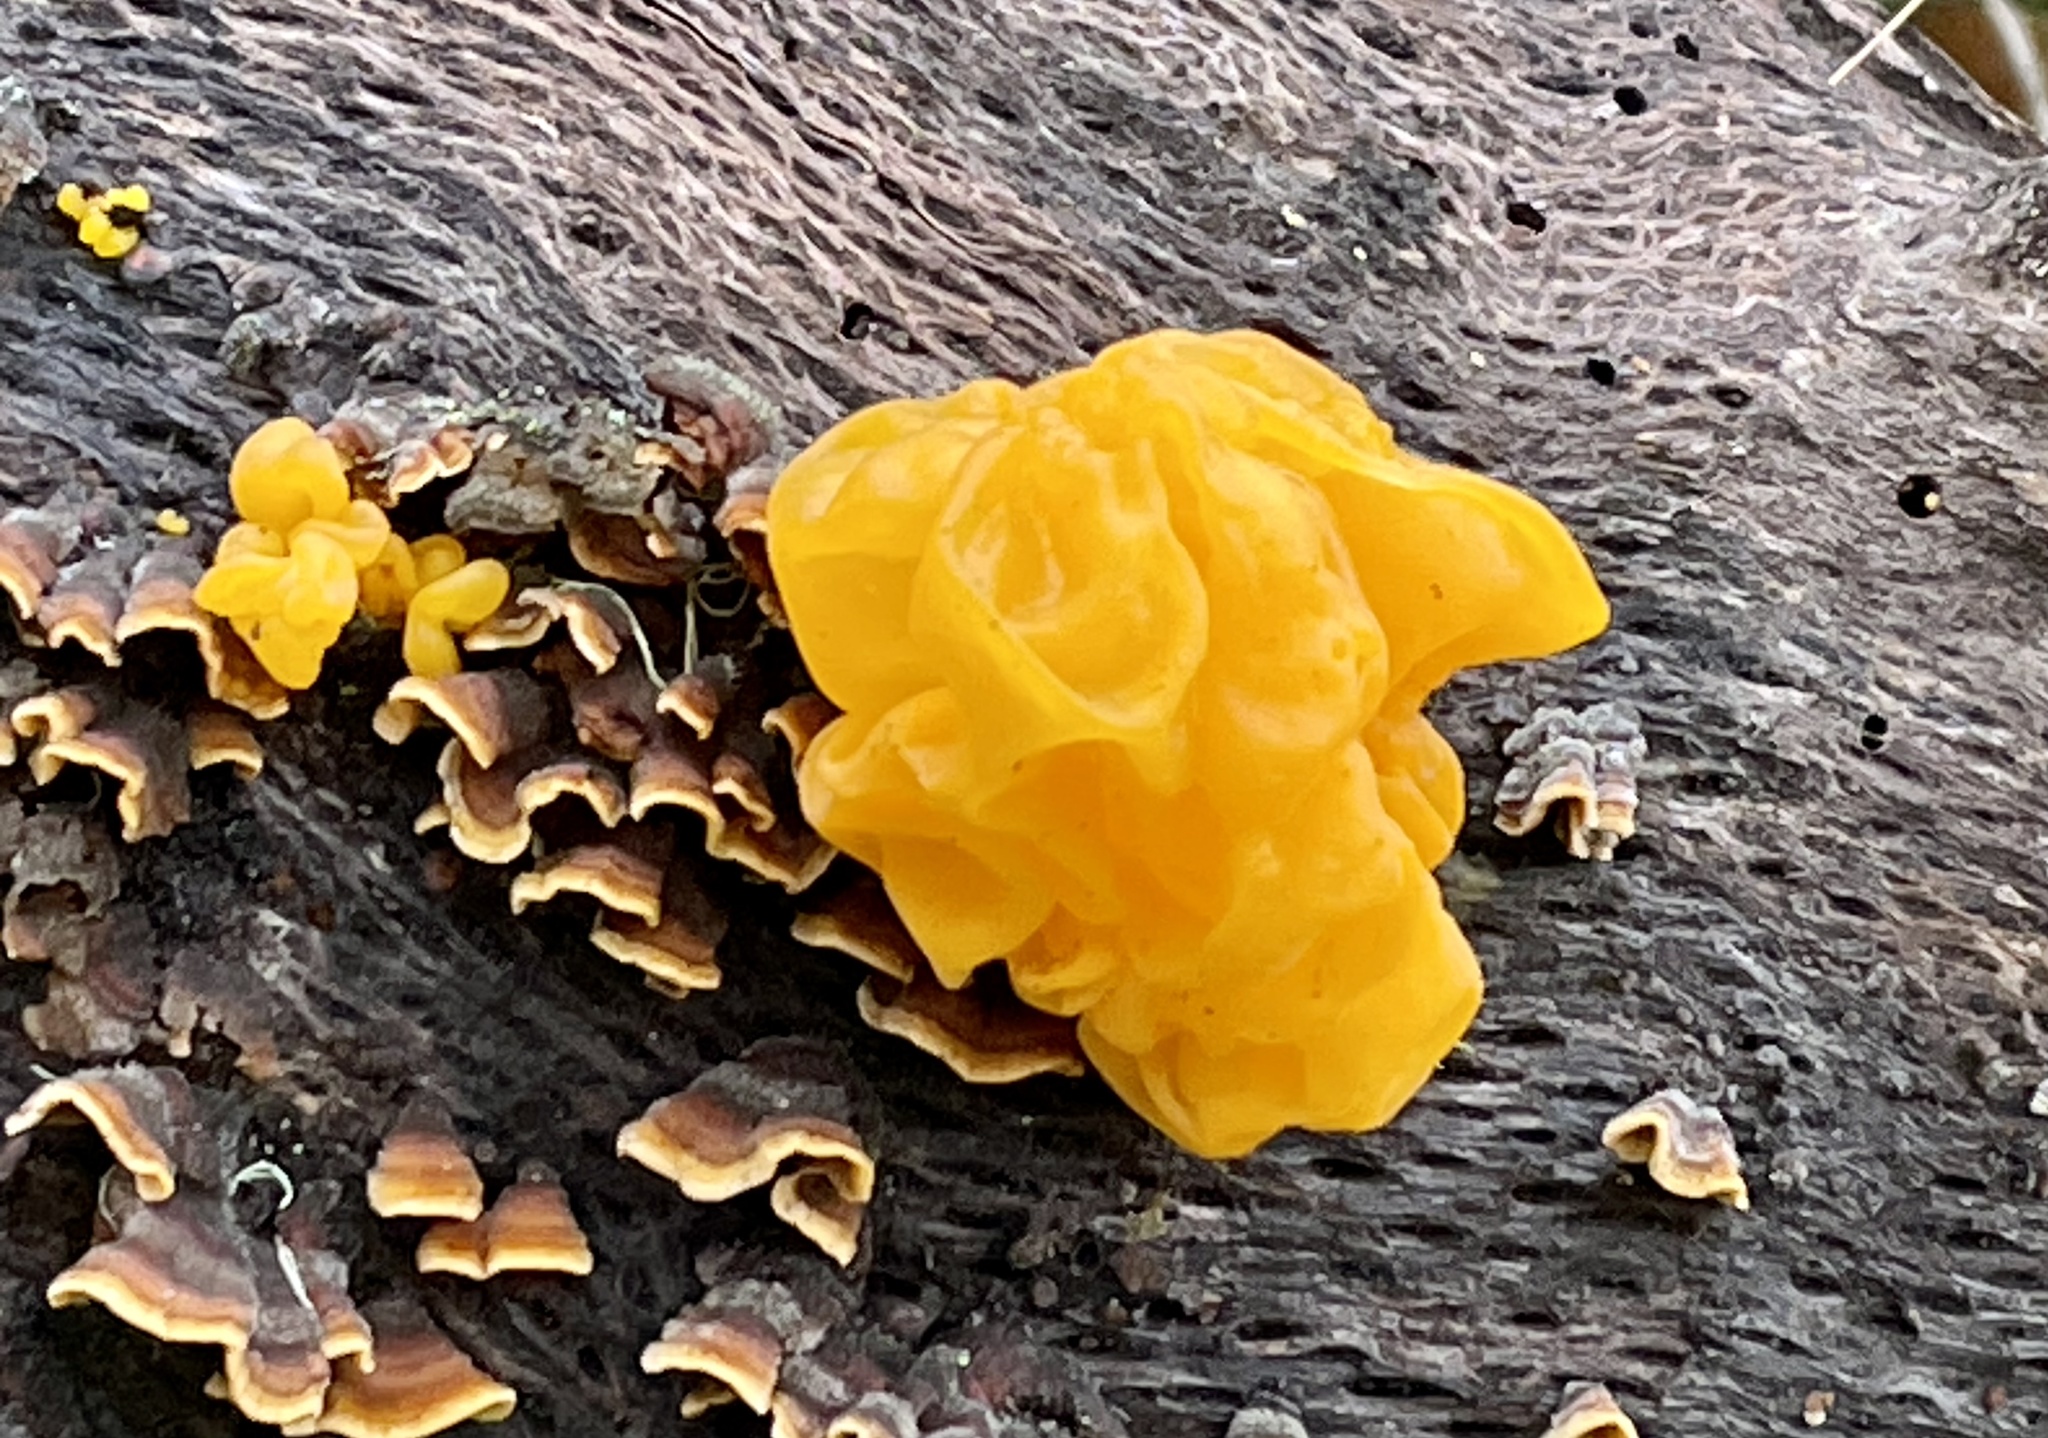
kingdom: Fungi
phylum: Basidiomycota
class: Tremellomycetes
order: Tremellales
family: Naemateliaceae
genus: Naematelia
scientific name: Naematelia aurantia
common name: Golden ear
